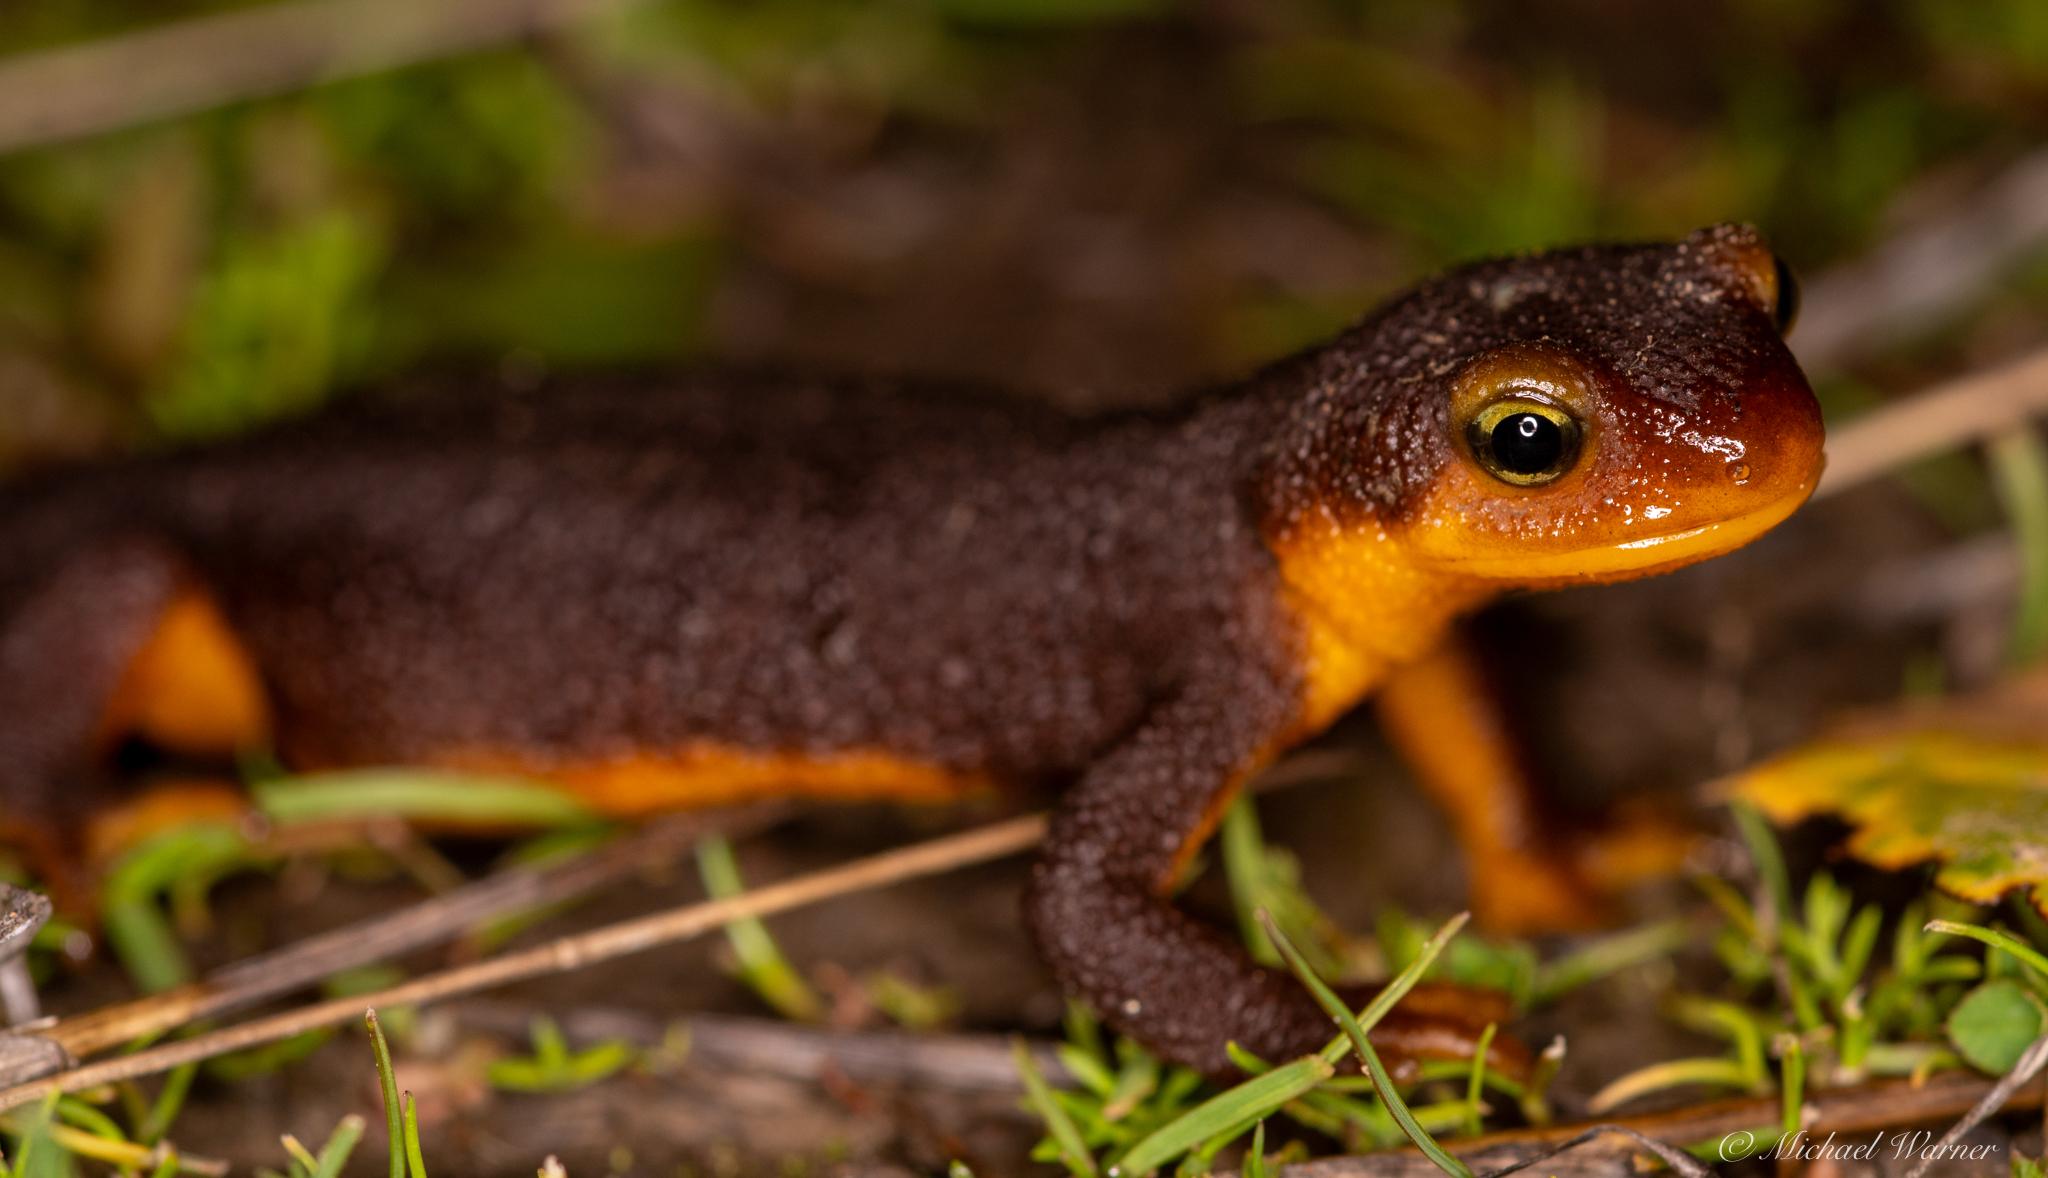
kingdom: Animalia
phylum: Chordata
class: Amphibia
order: Caudata
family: Salamandridae
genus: Taricha
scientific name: Taricha torosa
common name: California newt
